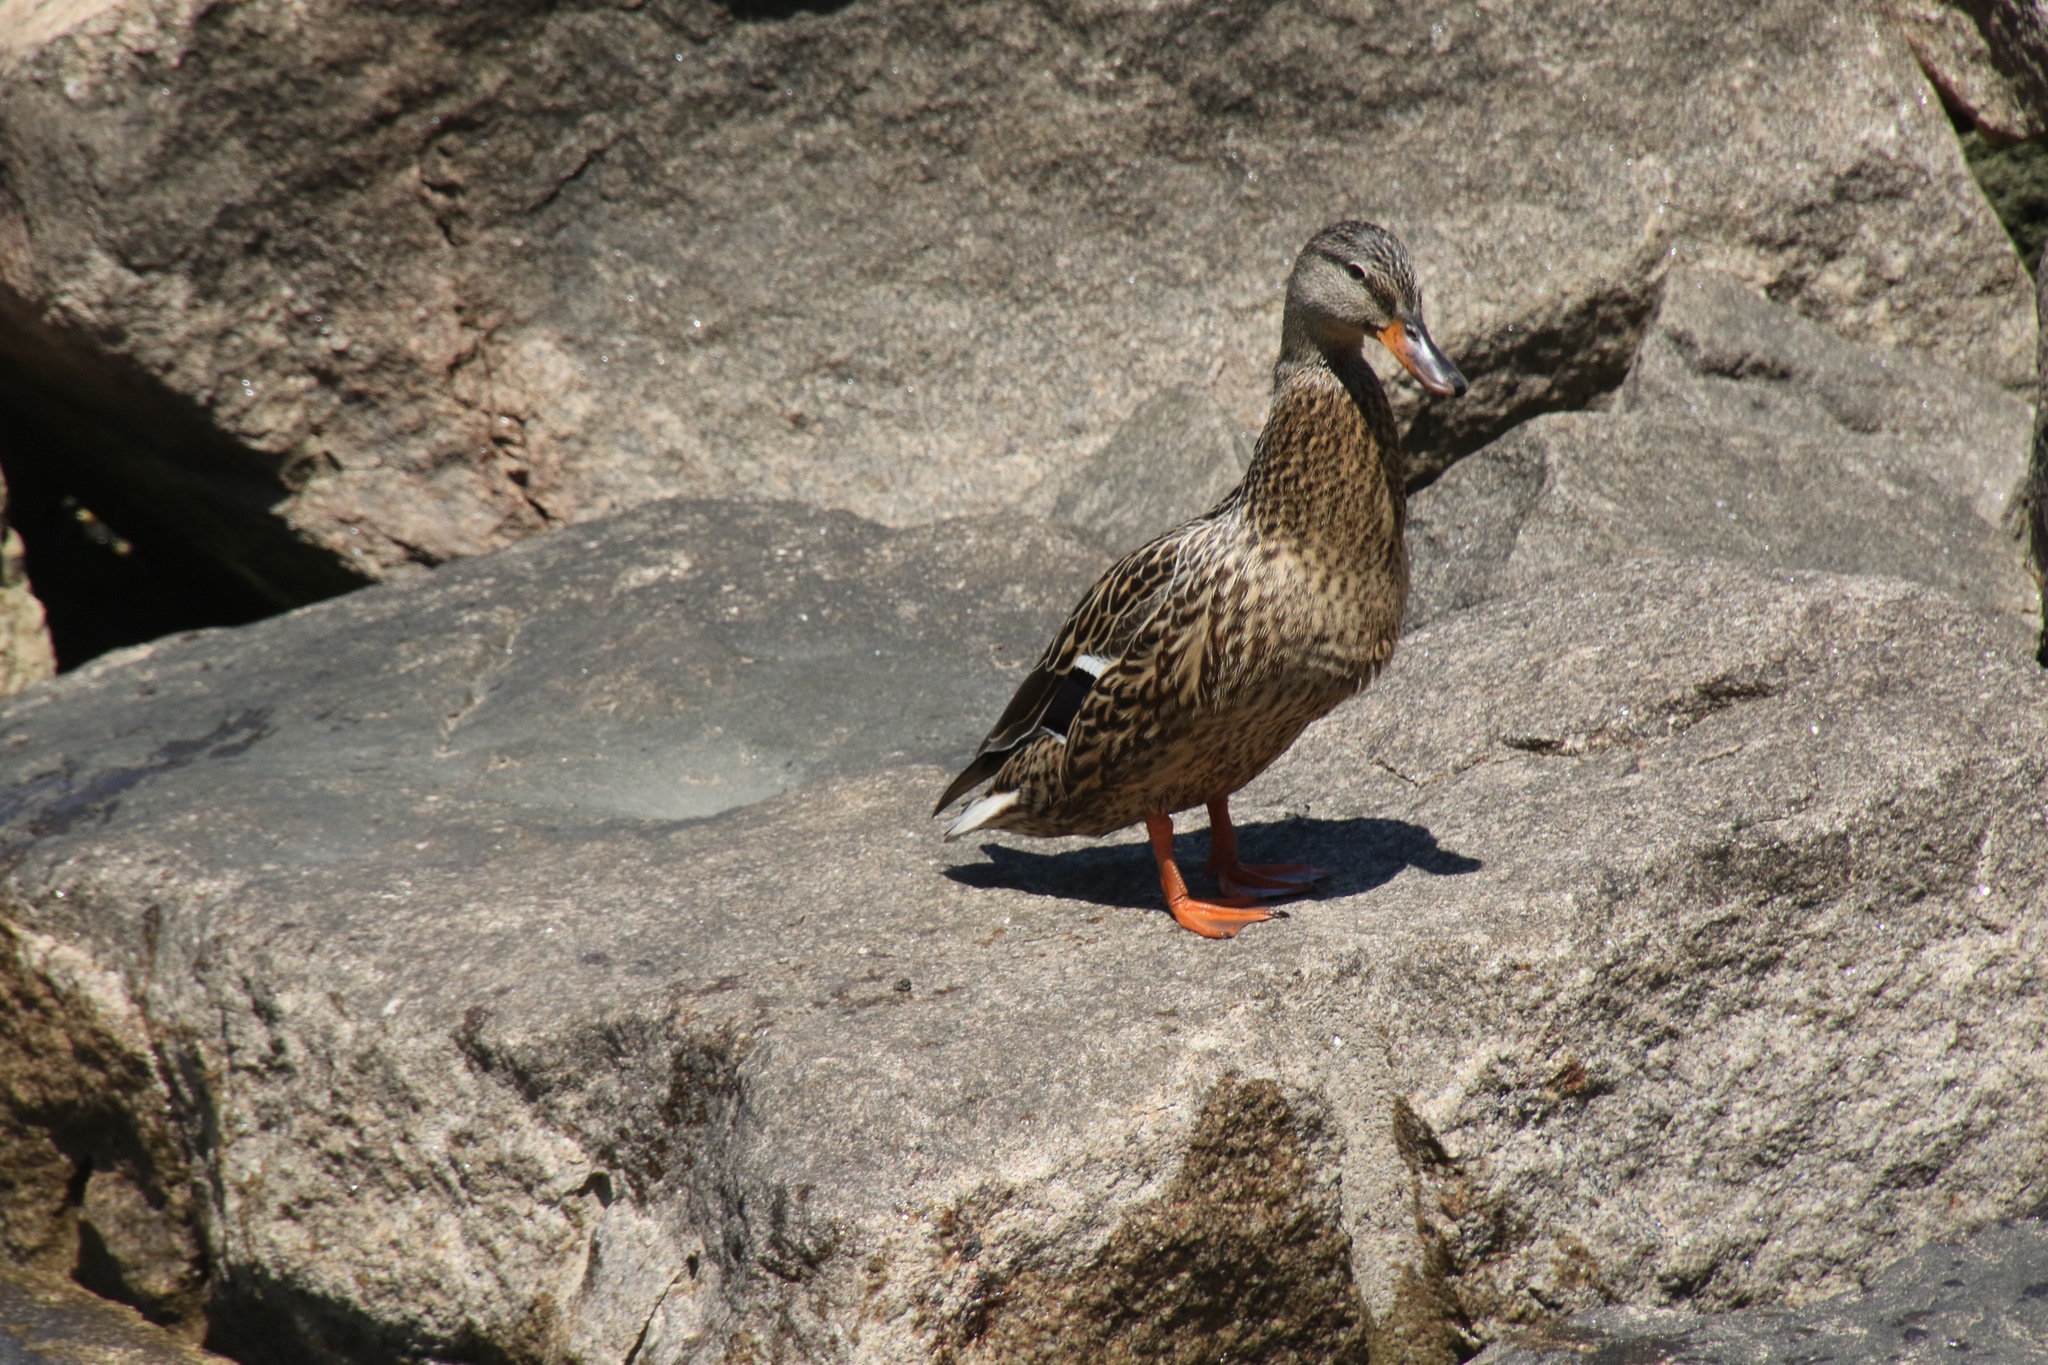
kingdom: Animalia
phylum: Chordata
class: Aves
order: Anseriformes
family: Anatidae
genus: Anas
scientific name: Anas platyrhynchos
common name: Mallard
